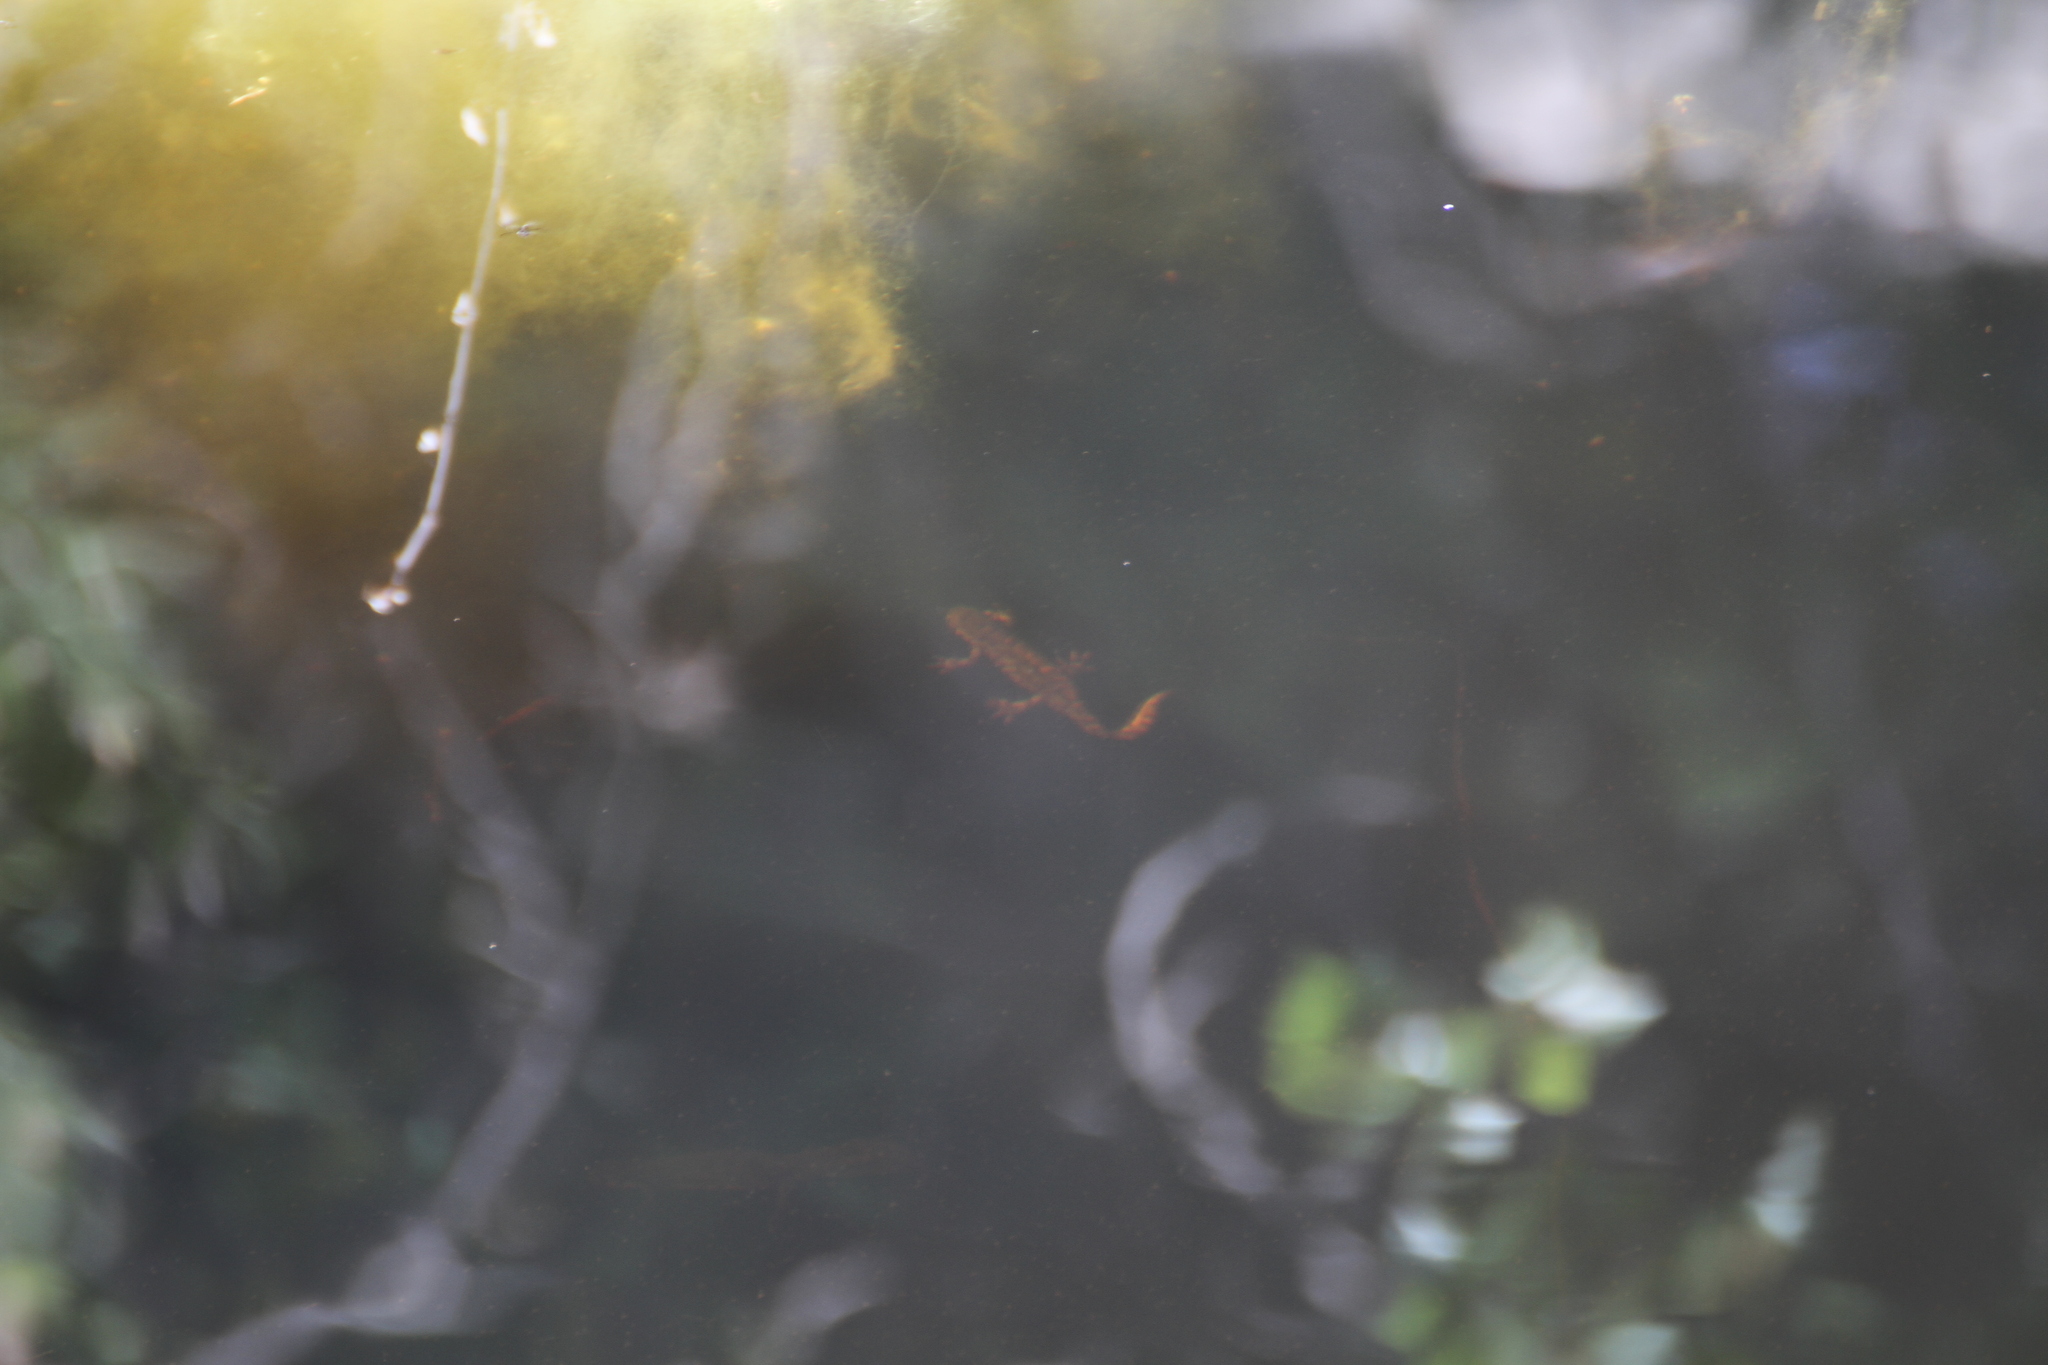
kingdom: Animalia
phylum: Chordata
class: Amphibia
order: Caudata
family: Salamandridae
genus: Triturus
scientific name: Triturus marmoratus
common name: Marbled newt
